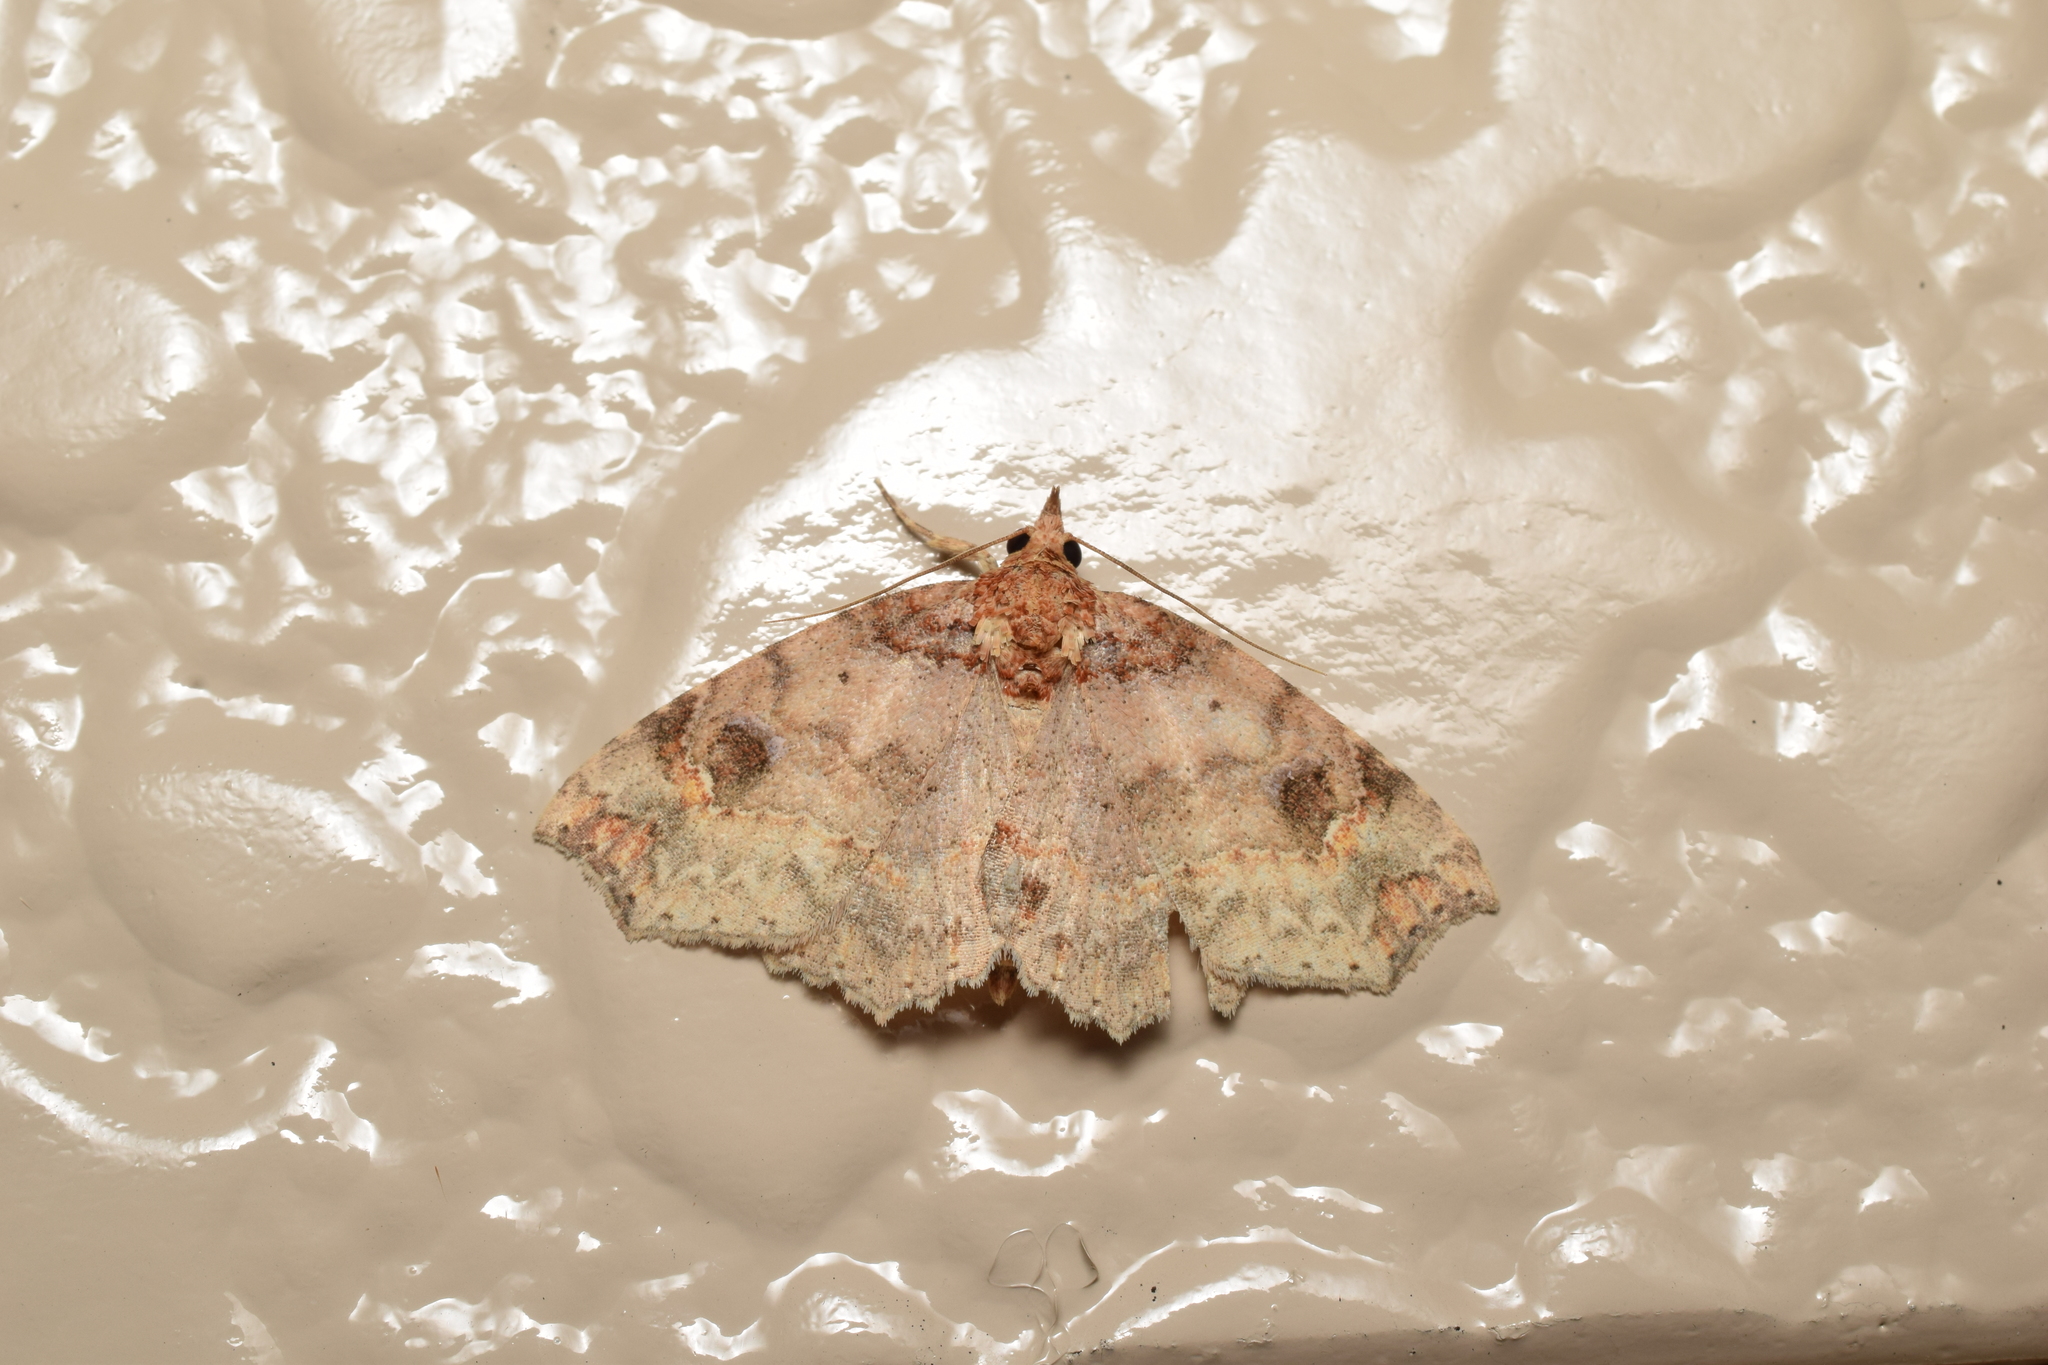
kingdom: Animalia
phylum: Arthropoda
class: Insecta
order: Lepidoptera
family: Erebidae
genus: Eugrapta
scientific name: Eugrapta igniflua
